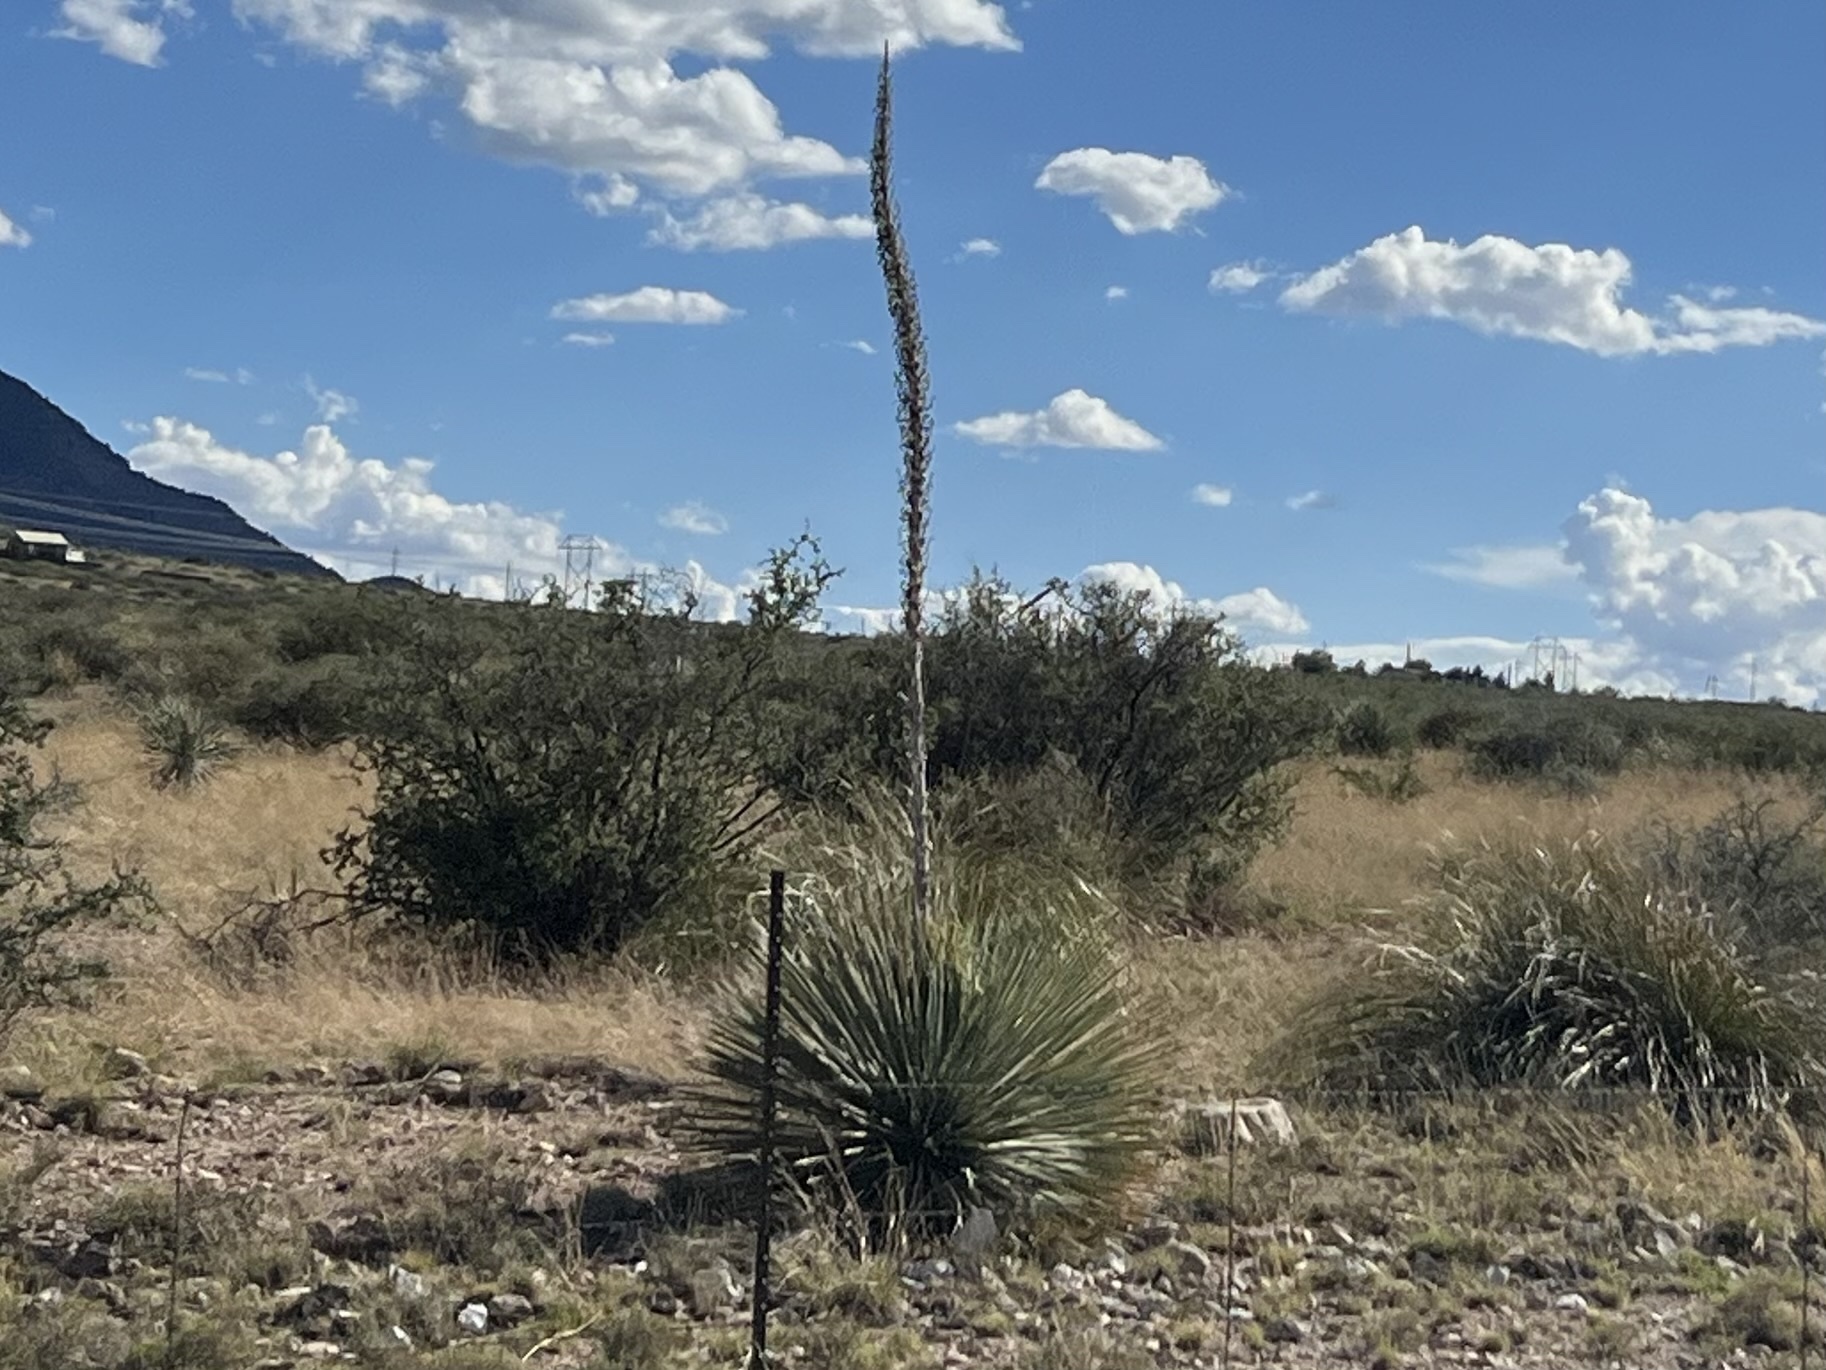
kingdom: Plantae
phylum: Tracheophyta
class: Liliopsida
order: Asparagales
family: Asparagaceae
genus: Dasylirion
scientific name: Dasylirion wheeleri
